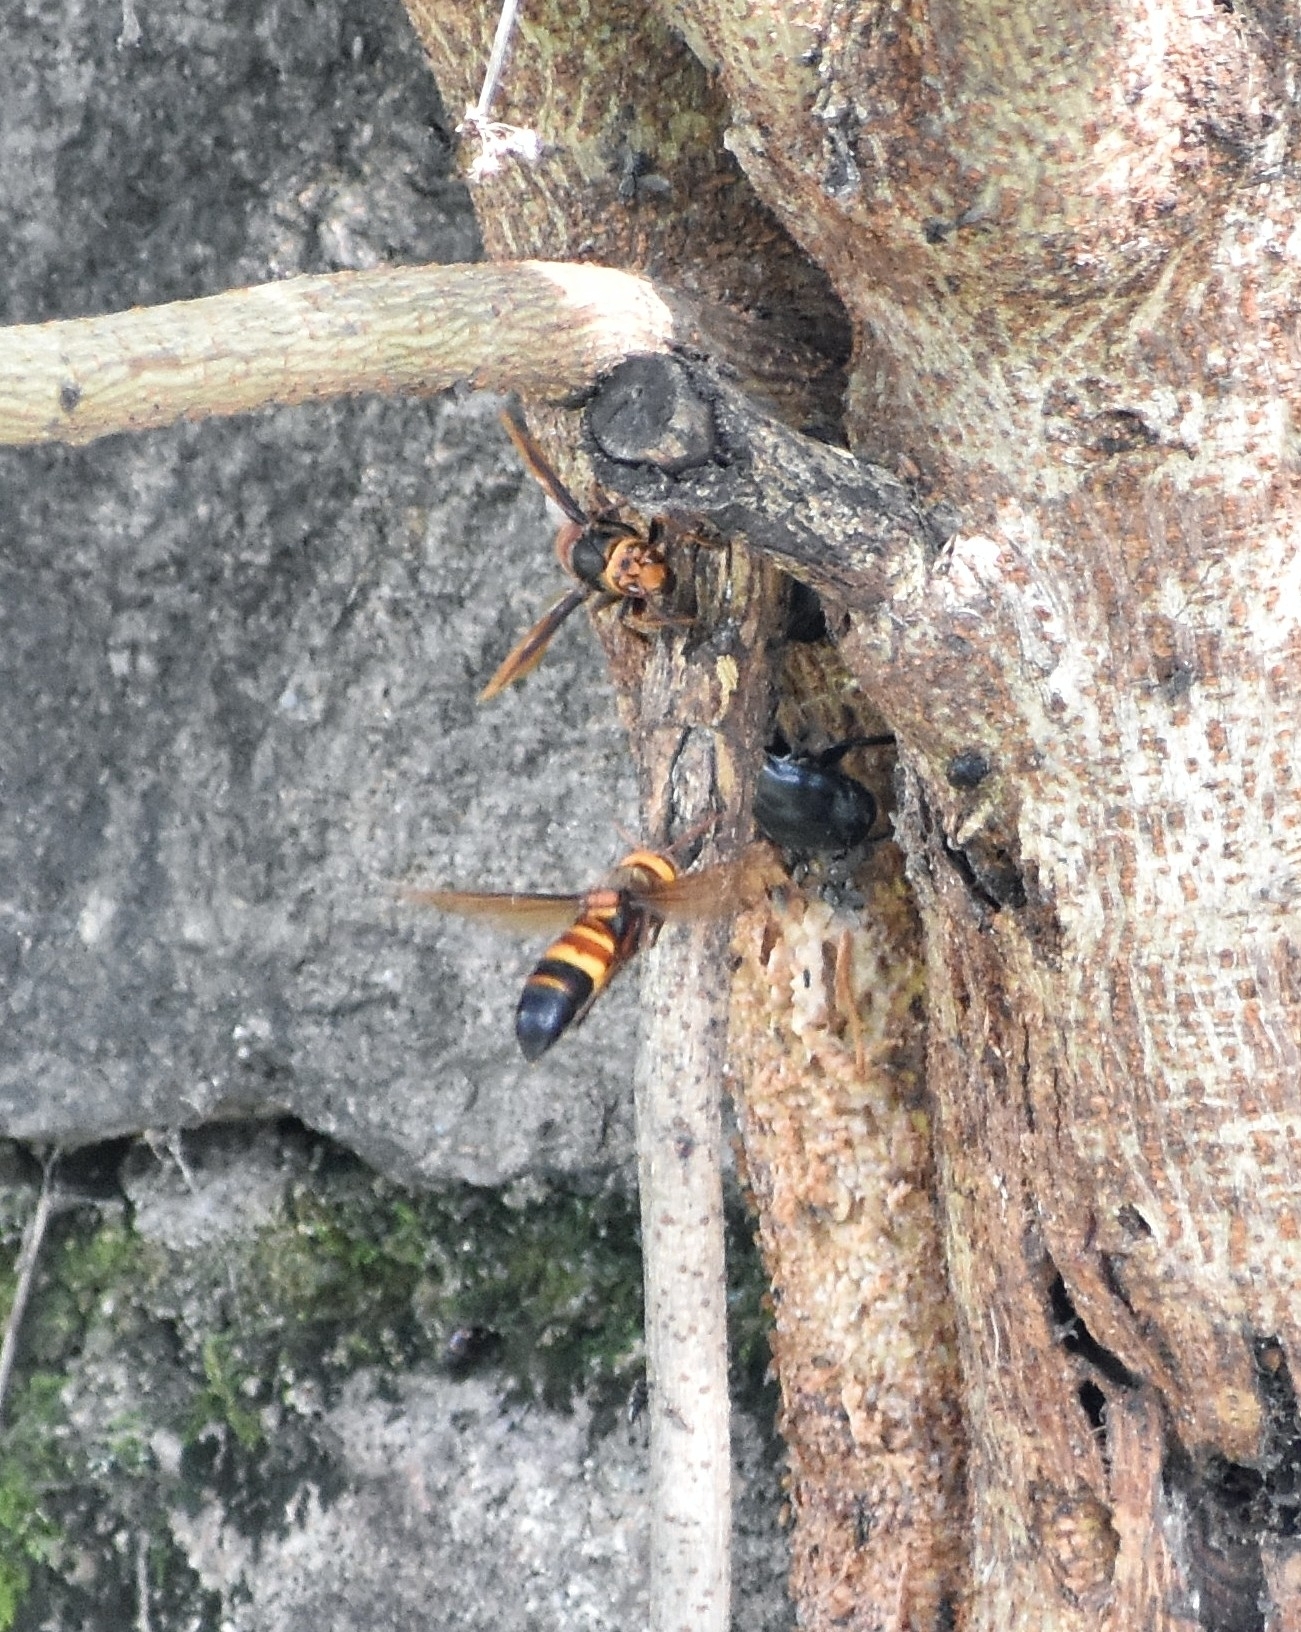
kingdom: Animalia
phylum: Arthropoda
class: Insecta
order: Hymenoptera
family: Vespidae
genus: Vespa
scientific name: Vespa ducalis
